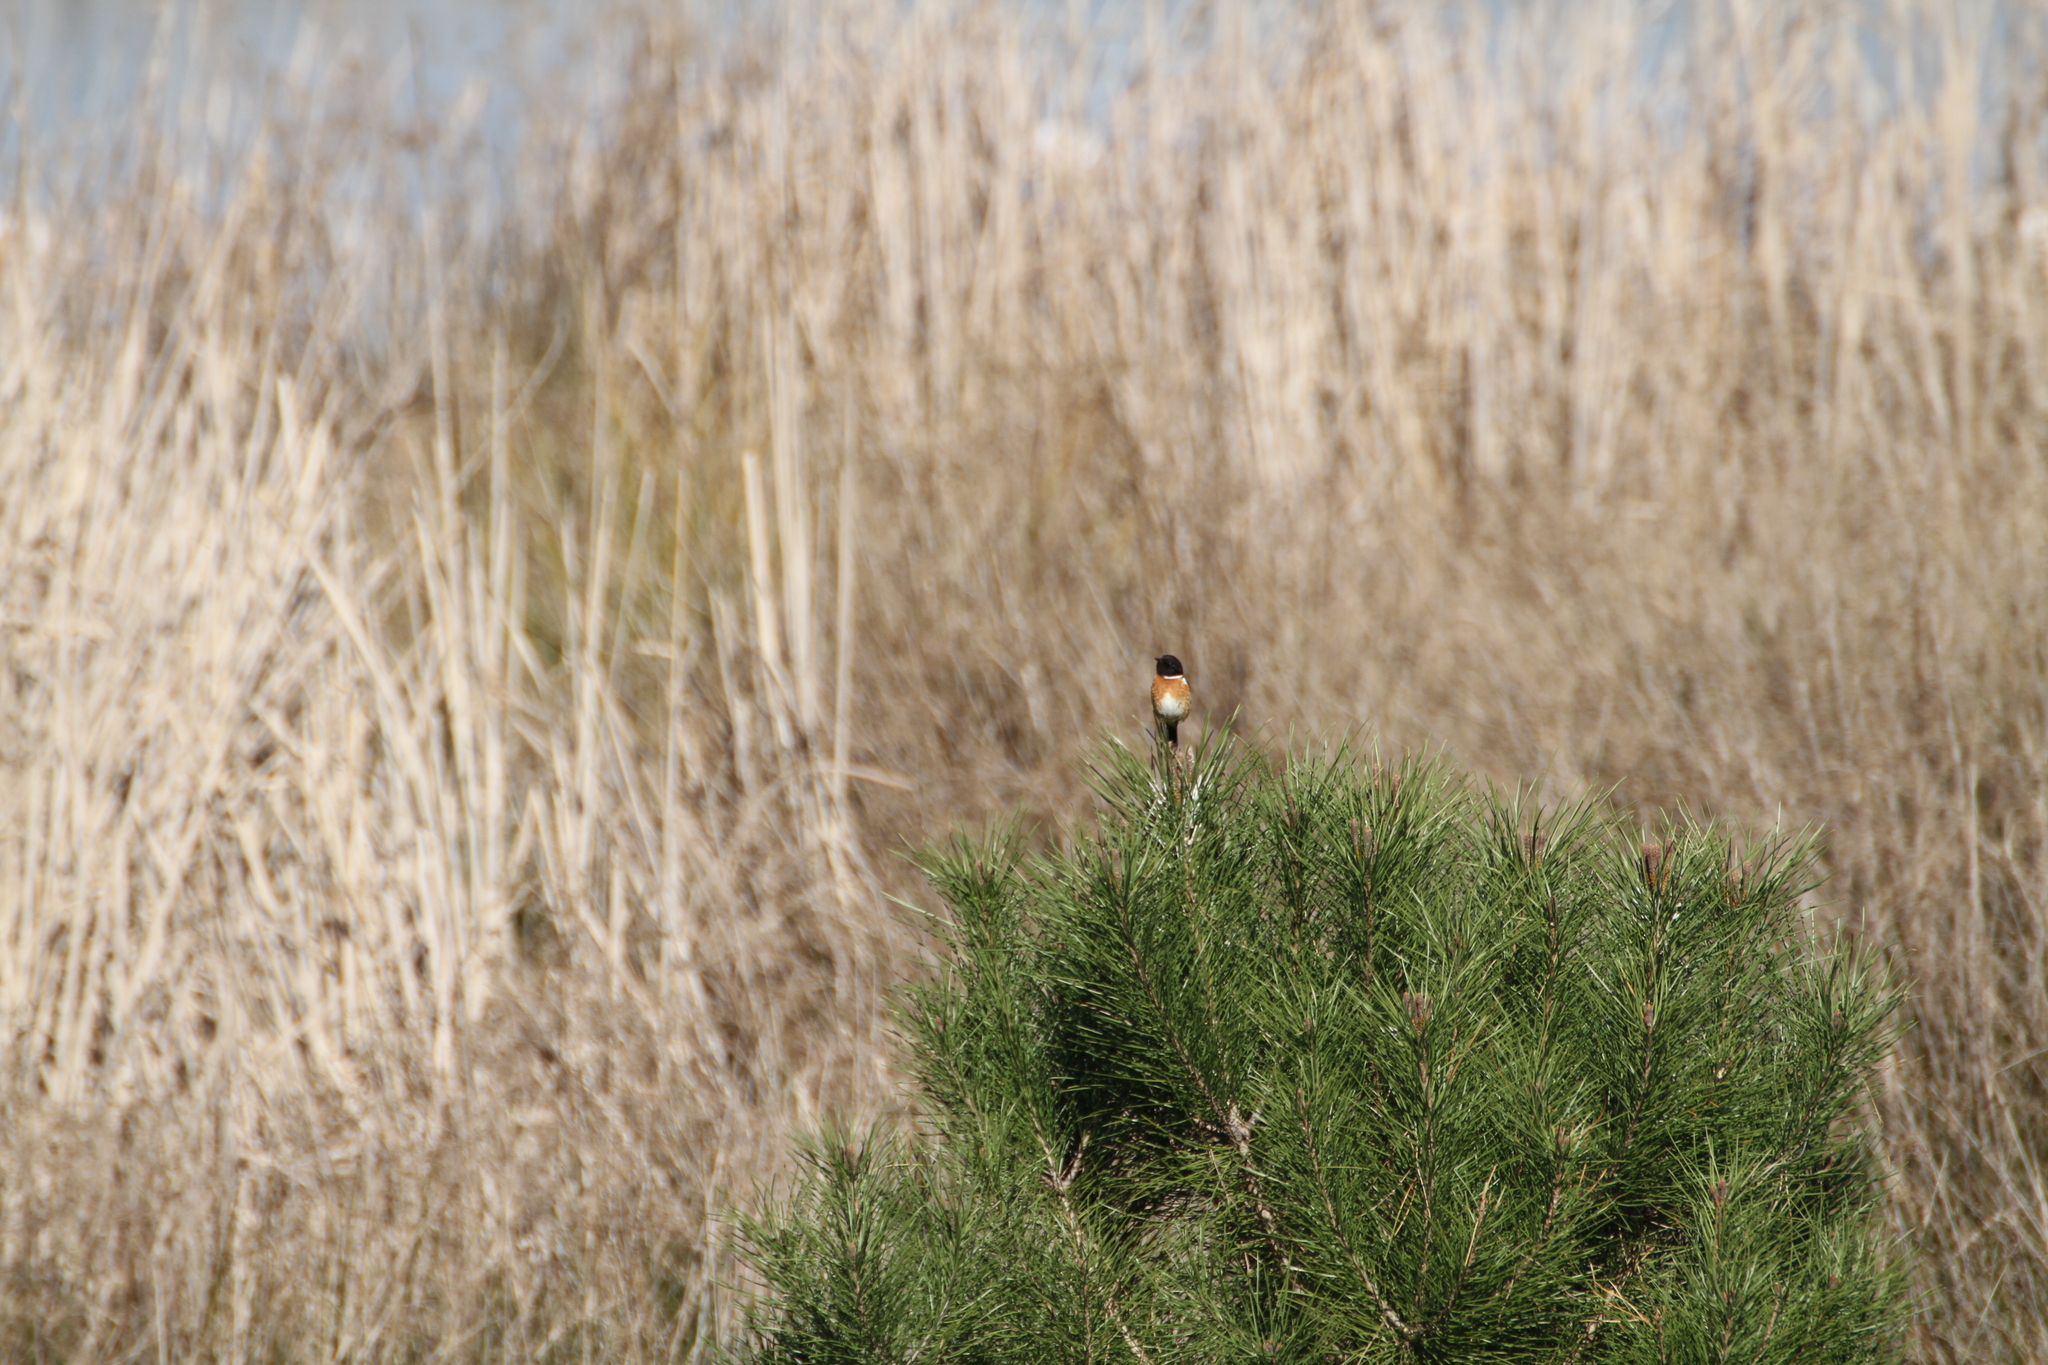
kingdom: Animalia
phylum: Chordata
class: Aves
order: Passeriformes
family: Muscicapidae
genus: Saxicola
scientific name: Saxicola rubicola
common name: European stonechat
